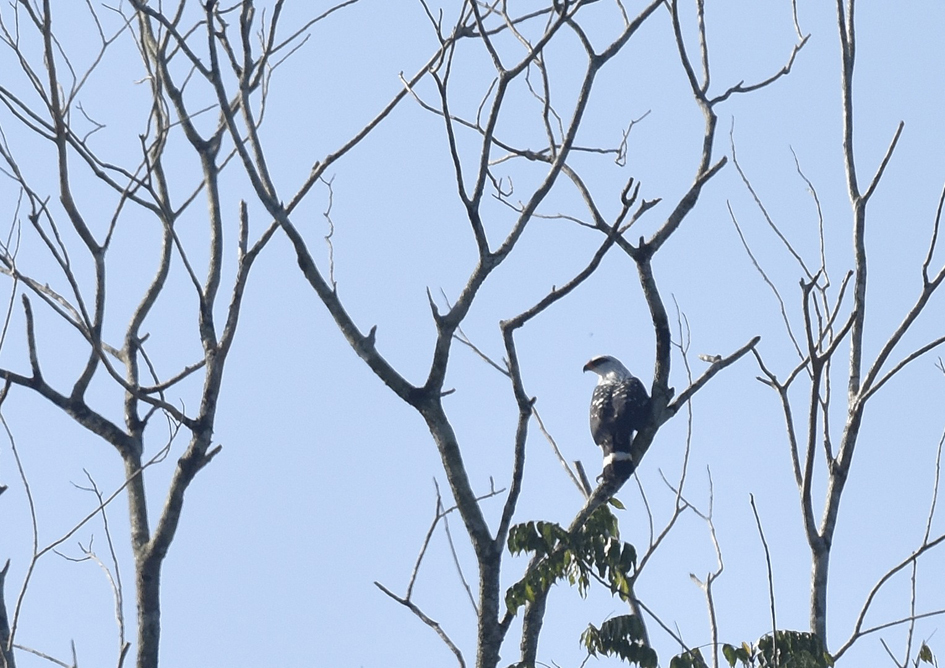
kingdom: Animalia
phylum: Chordata
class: Aves
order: Accipitriformes
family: Accipitridae
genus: Leucopternis
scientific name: Leucopternis melanops
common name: Black-faced hawk
